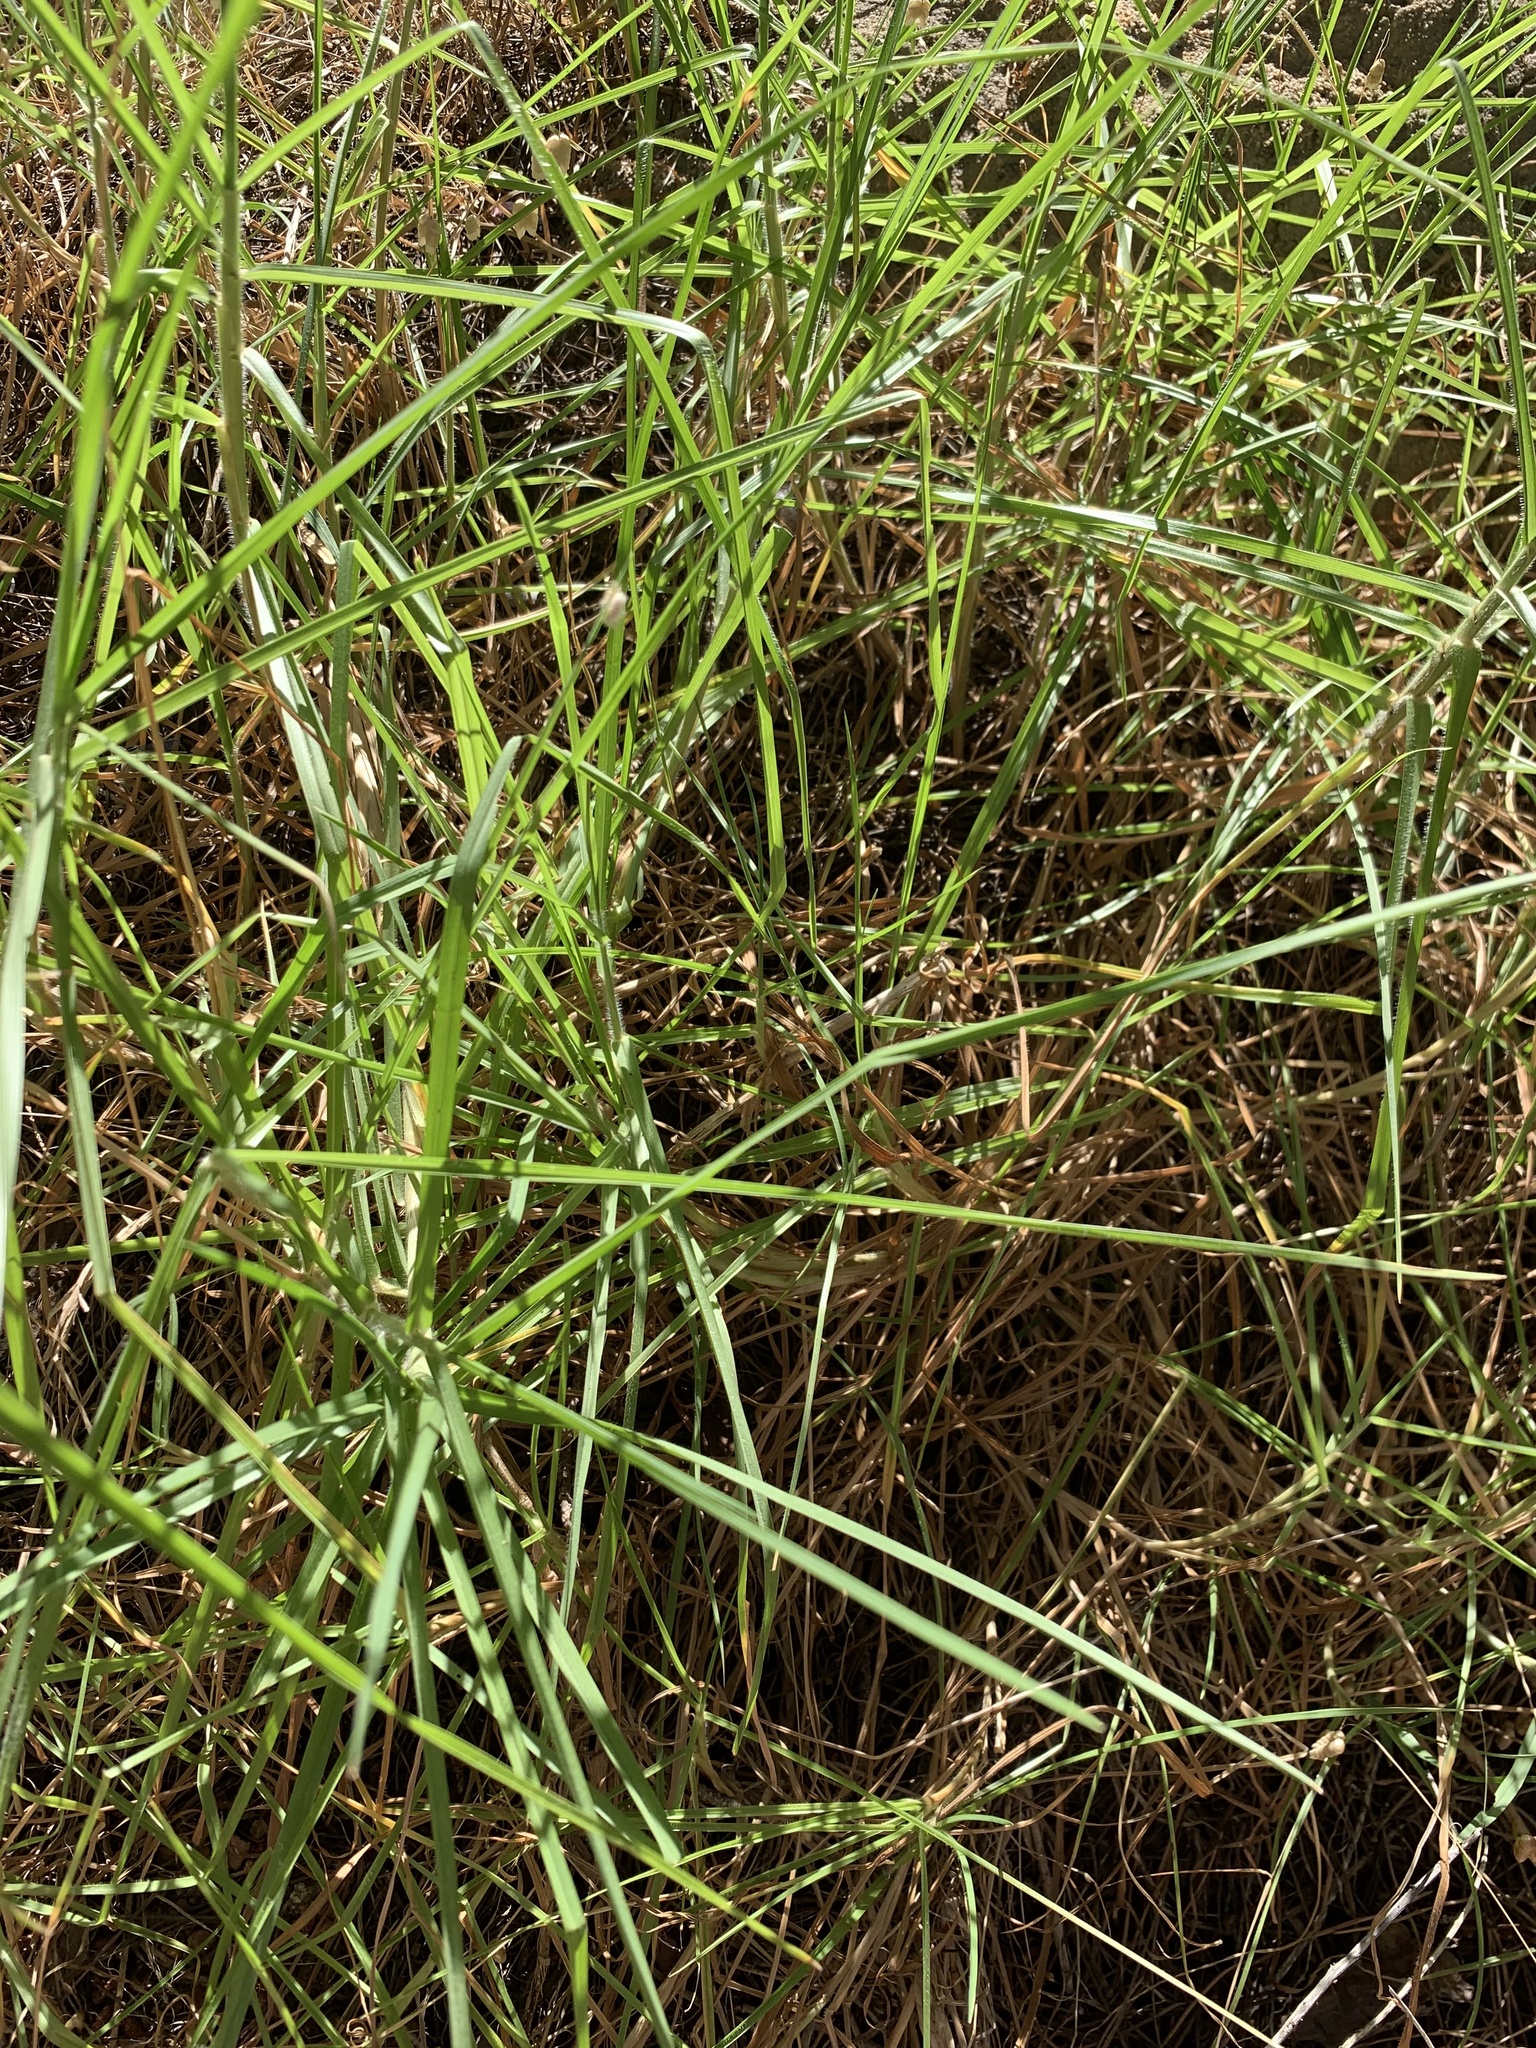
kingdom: Plantae
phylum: Tracheophyta
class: Liliopsida
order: Poales
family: Poaceae
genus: Cenchrus
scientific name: Cenchrus clandestinus
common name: Kikuyugrass
